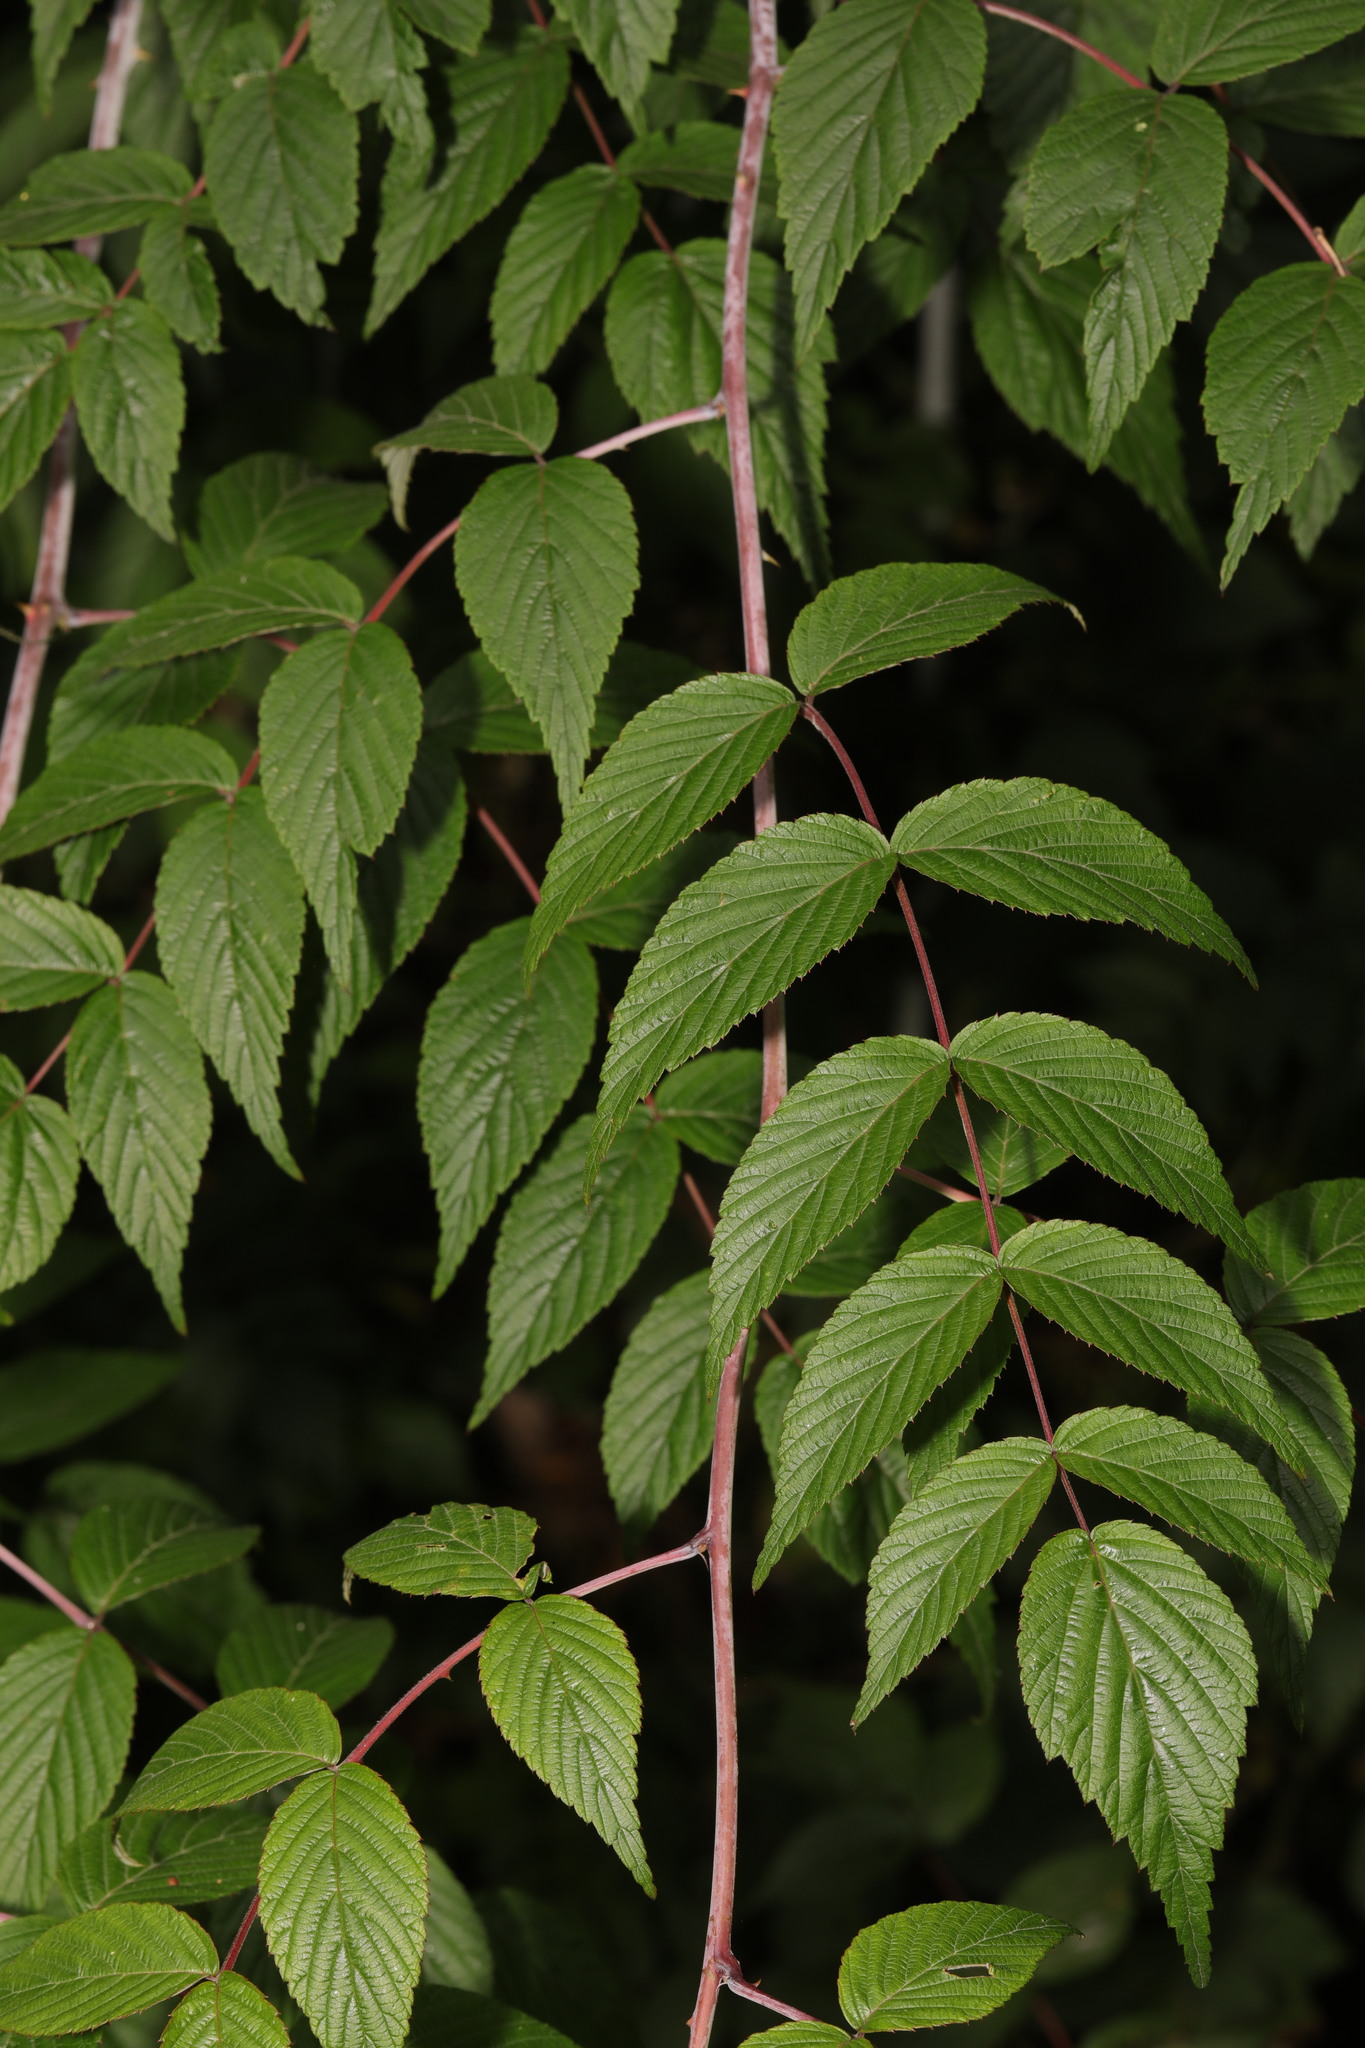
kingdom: Plantae
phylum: Tracheophyta
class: Magnoliopsida
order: Rosales
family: Rosaceae
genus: Rubus
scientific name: Rubus cockburnianus
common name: White-stemmed bramble
